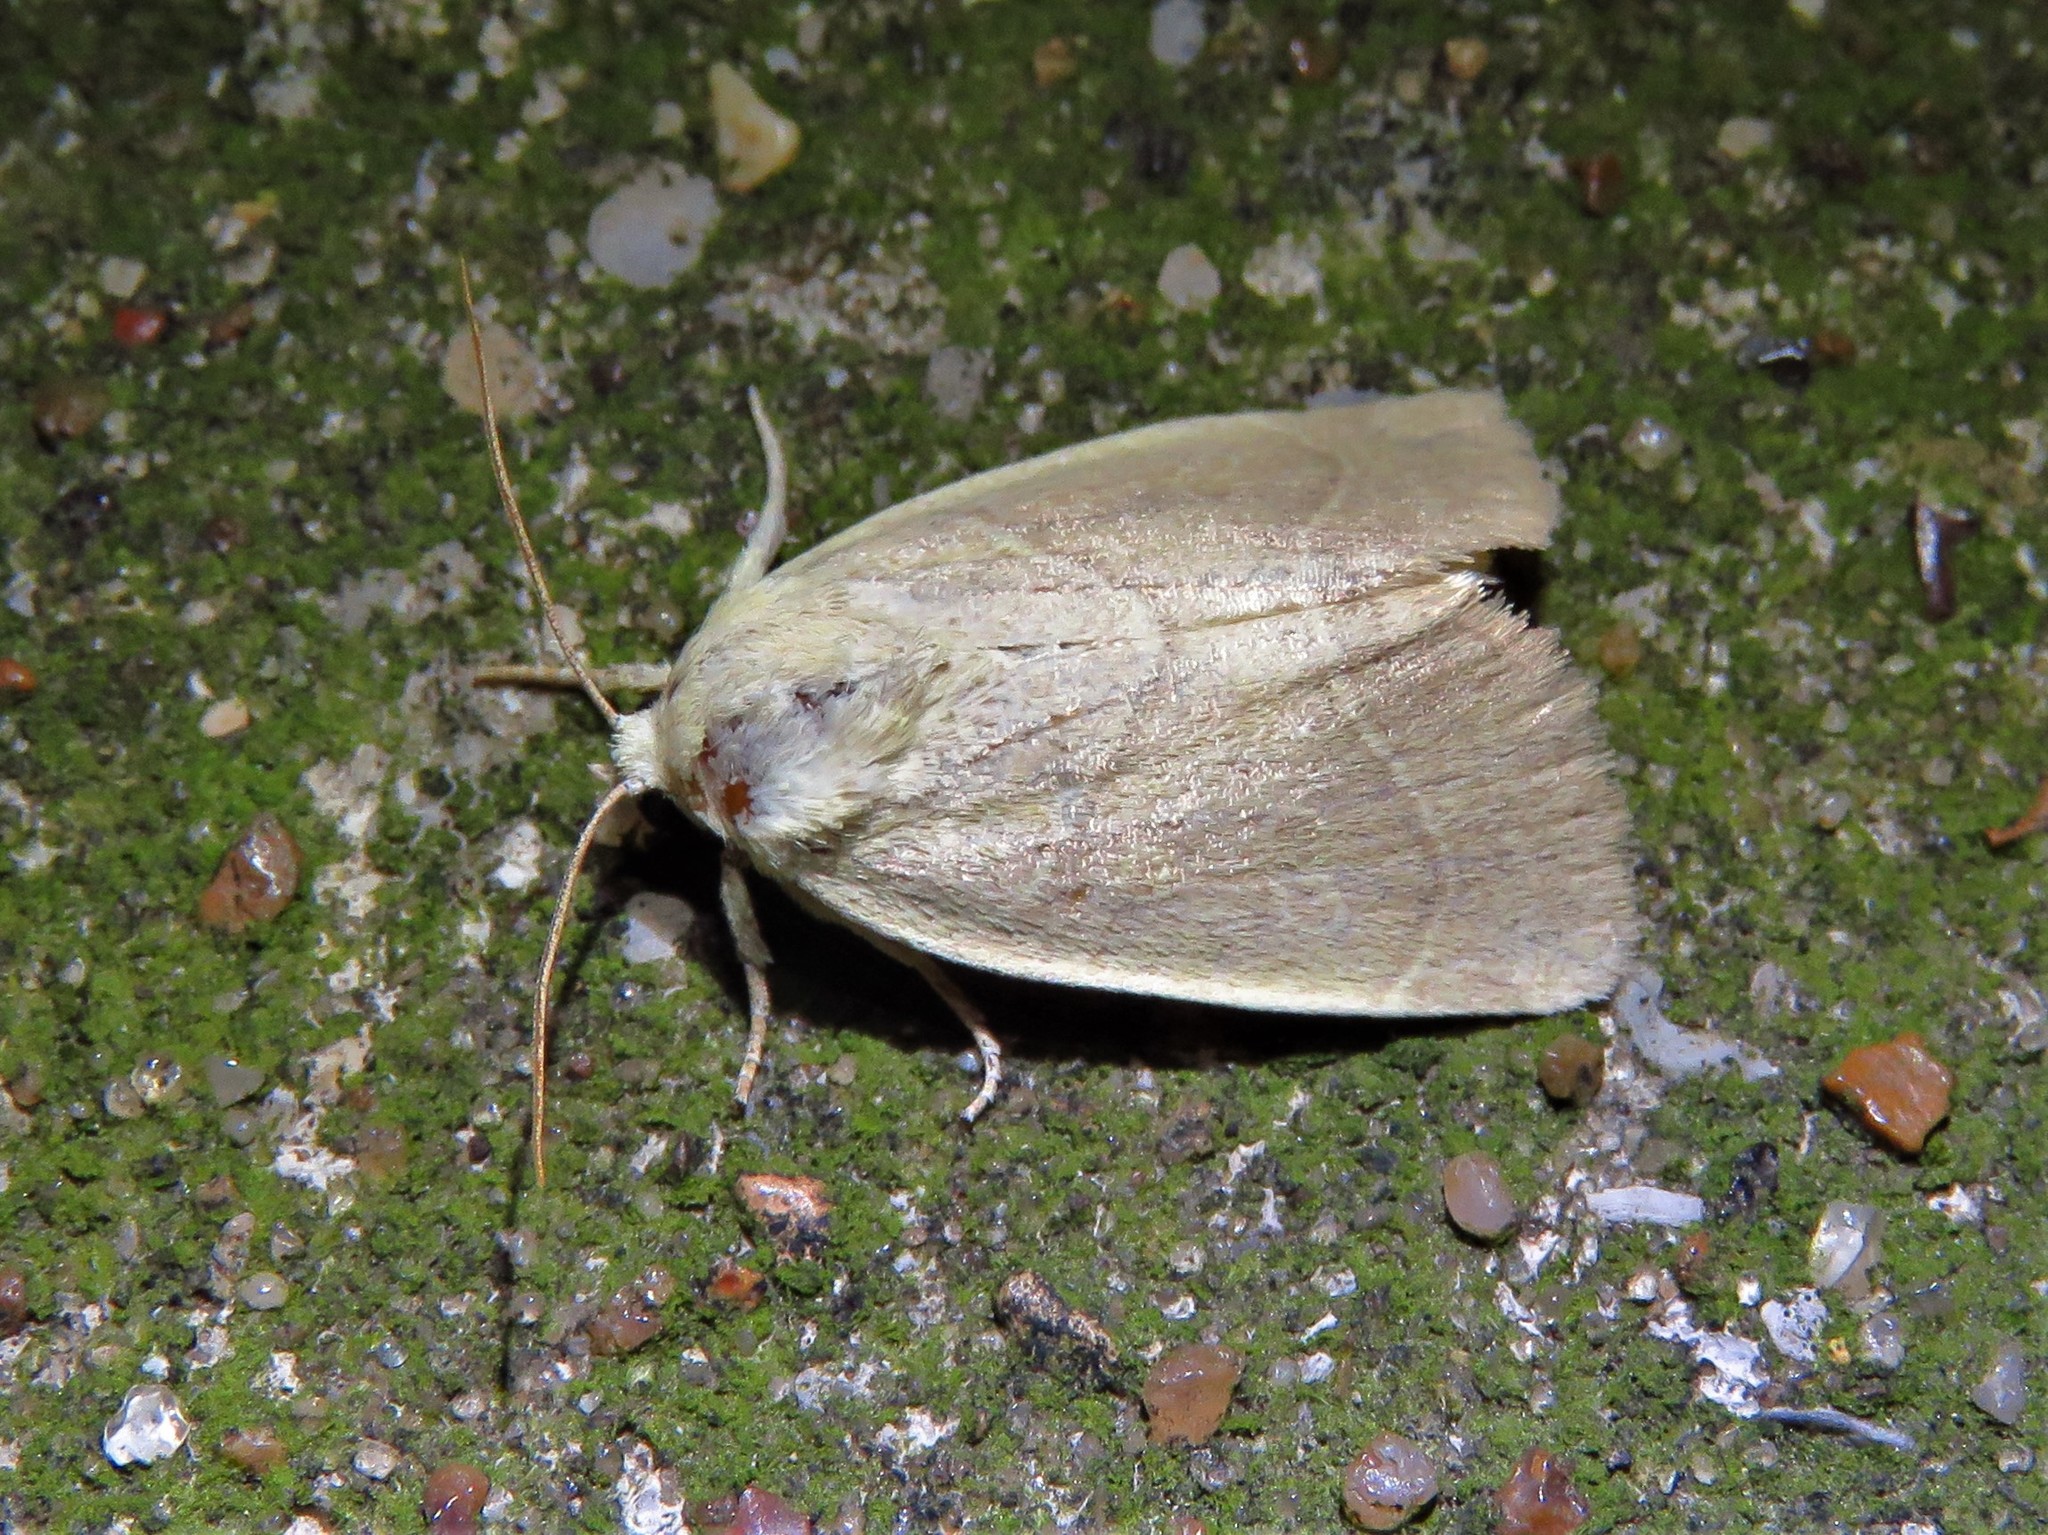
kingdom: Animalia
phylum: Arthropoda
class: Insecta
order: Lepidoptera
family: Noctuidae
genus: Cosmia
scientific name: Cosmia calami
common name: American dun-bar moth
